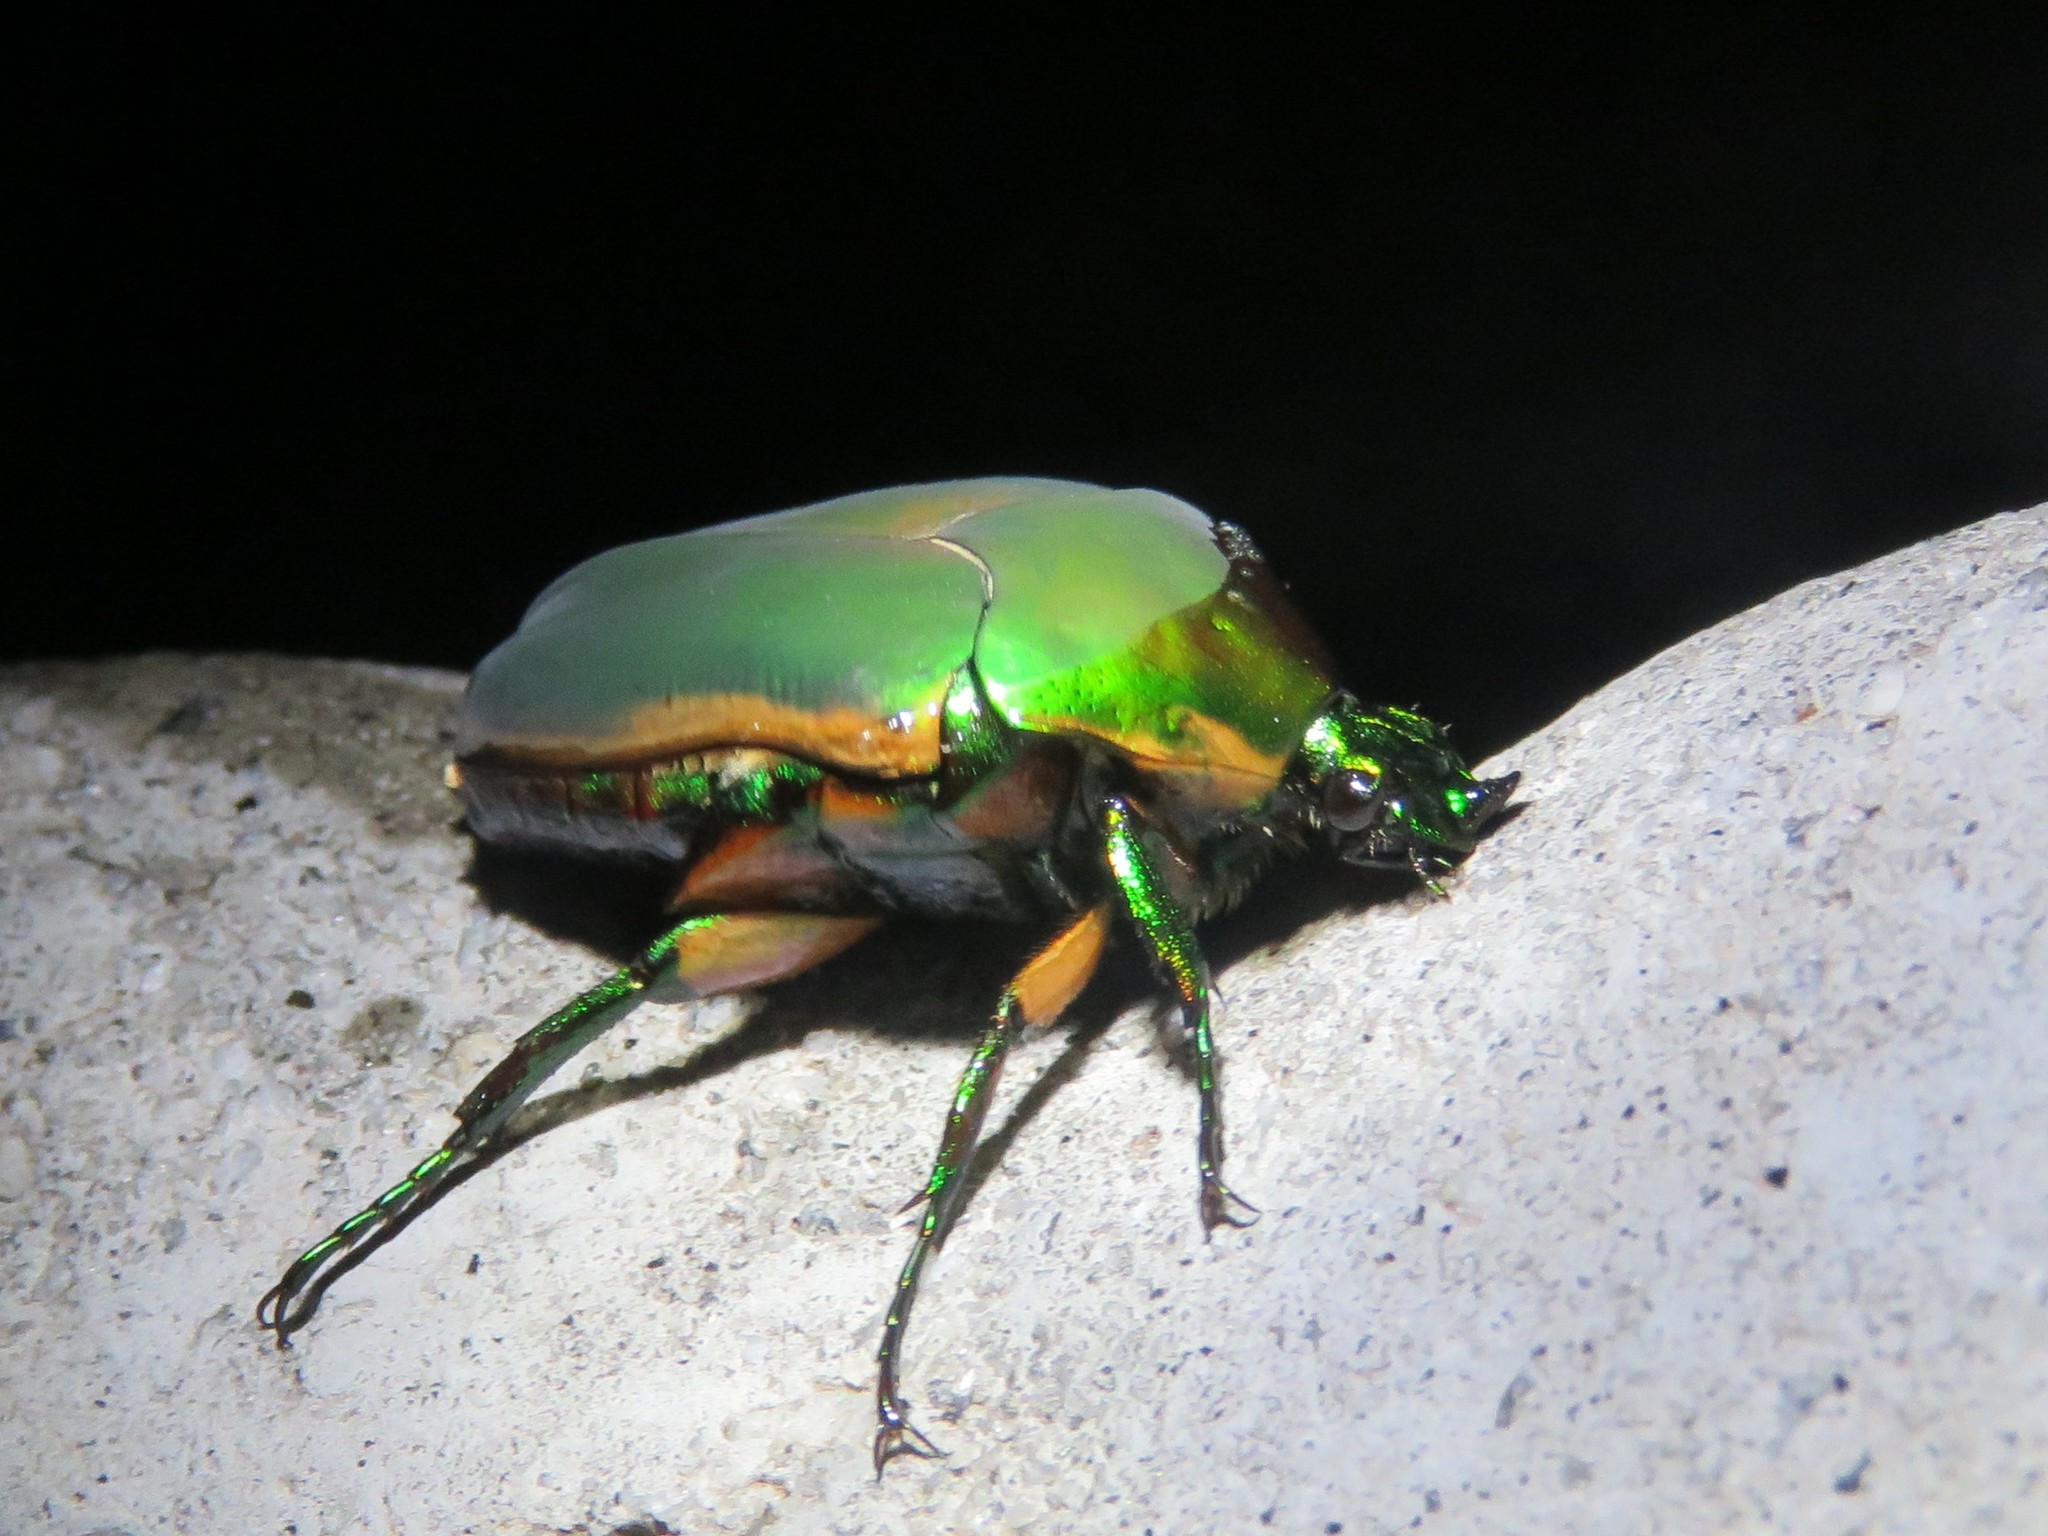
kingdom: Animalia
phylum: Arthropoda
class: Insecta
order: Coleoptera
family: Scarabaeidae
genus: Cotinis
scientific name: Cotinis nitida
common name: Common green june beetle
